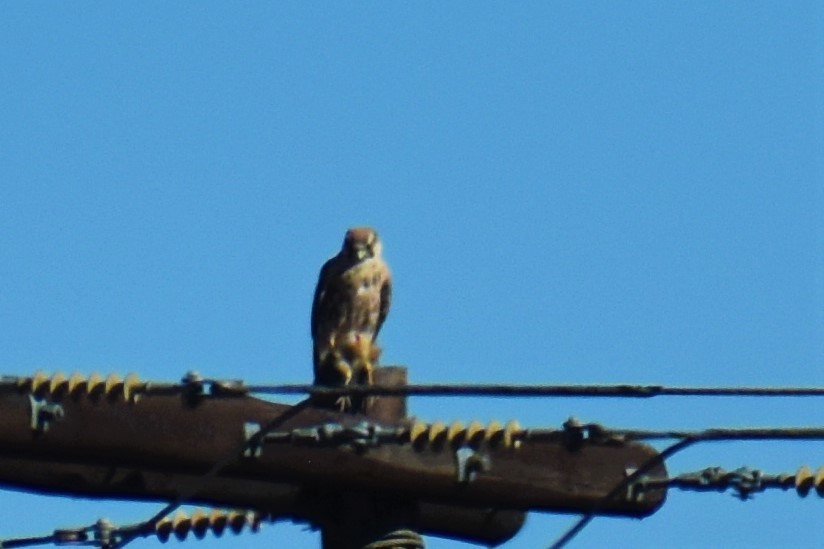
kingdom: Animalia
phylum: Chordata
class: Aves
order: Falconiformes
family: Falconidae
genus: Falco
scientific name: Falco biarmicus
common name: Lanner falcon
